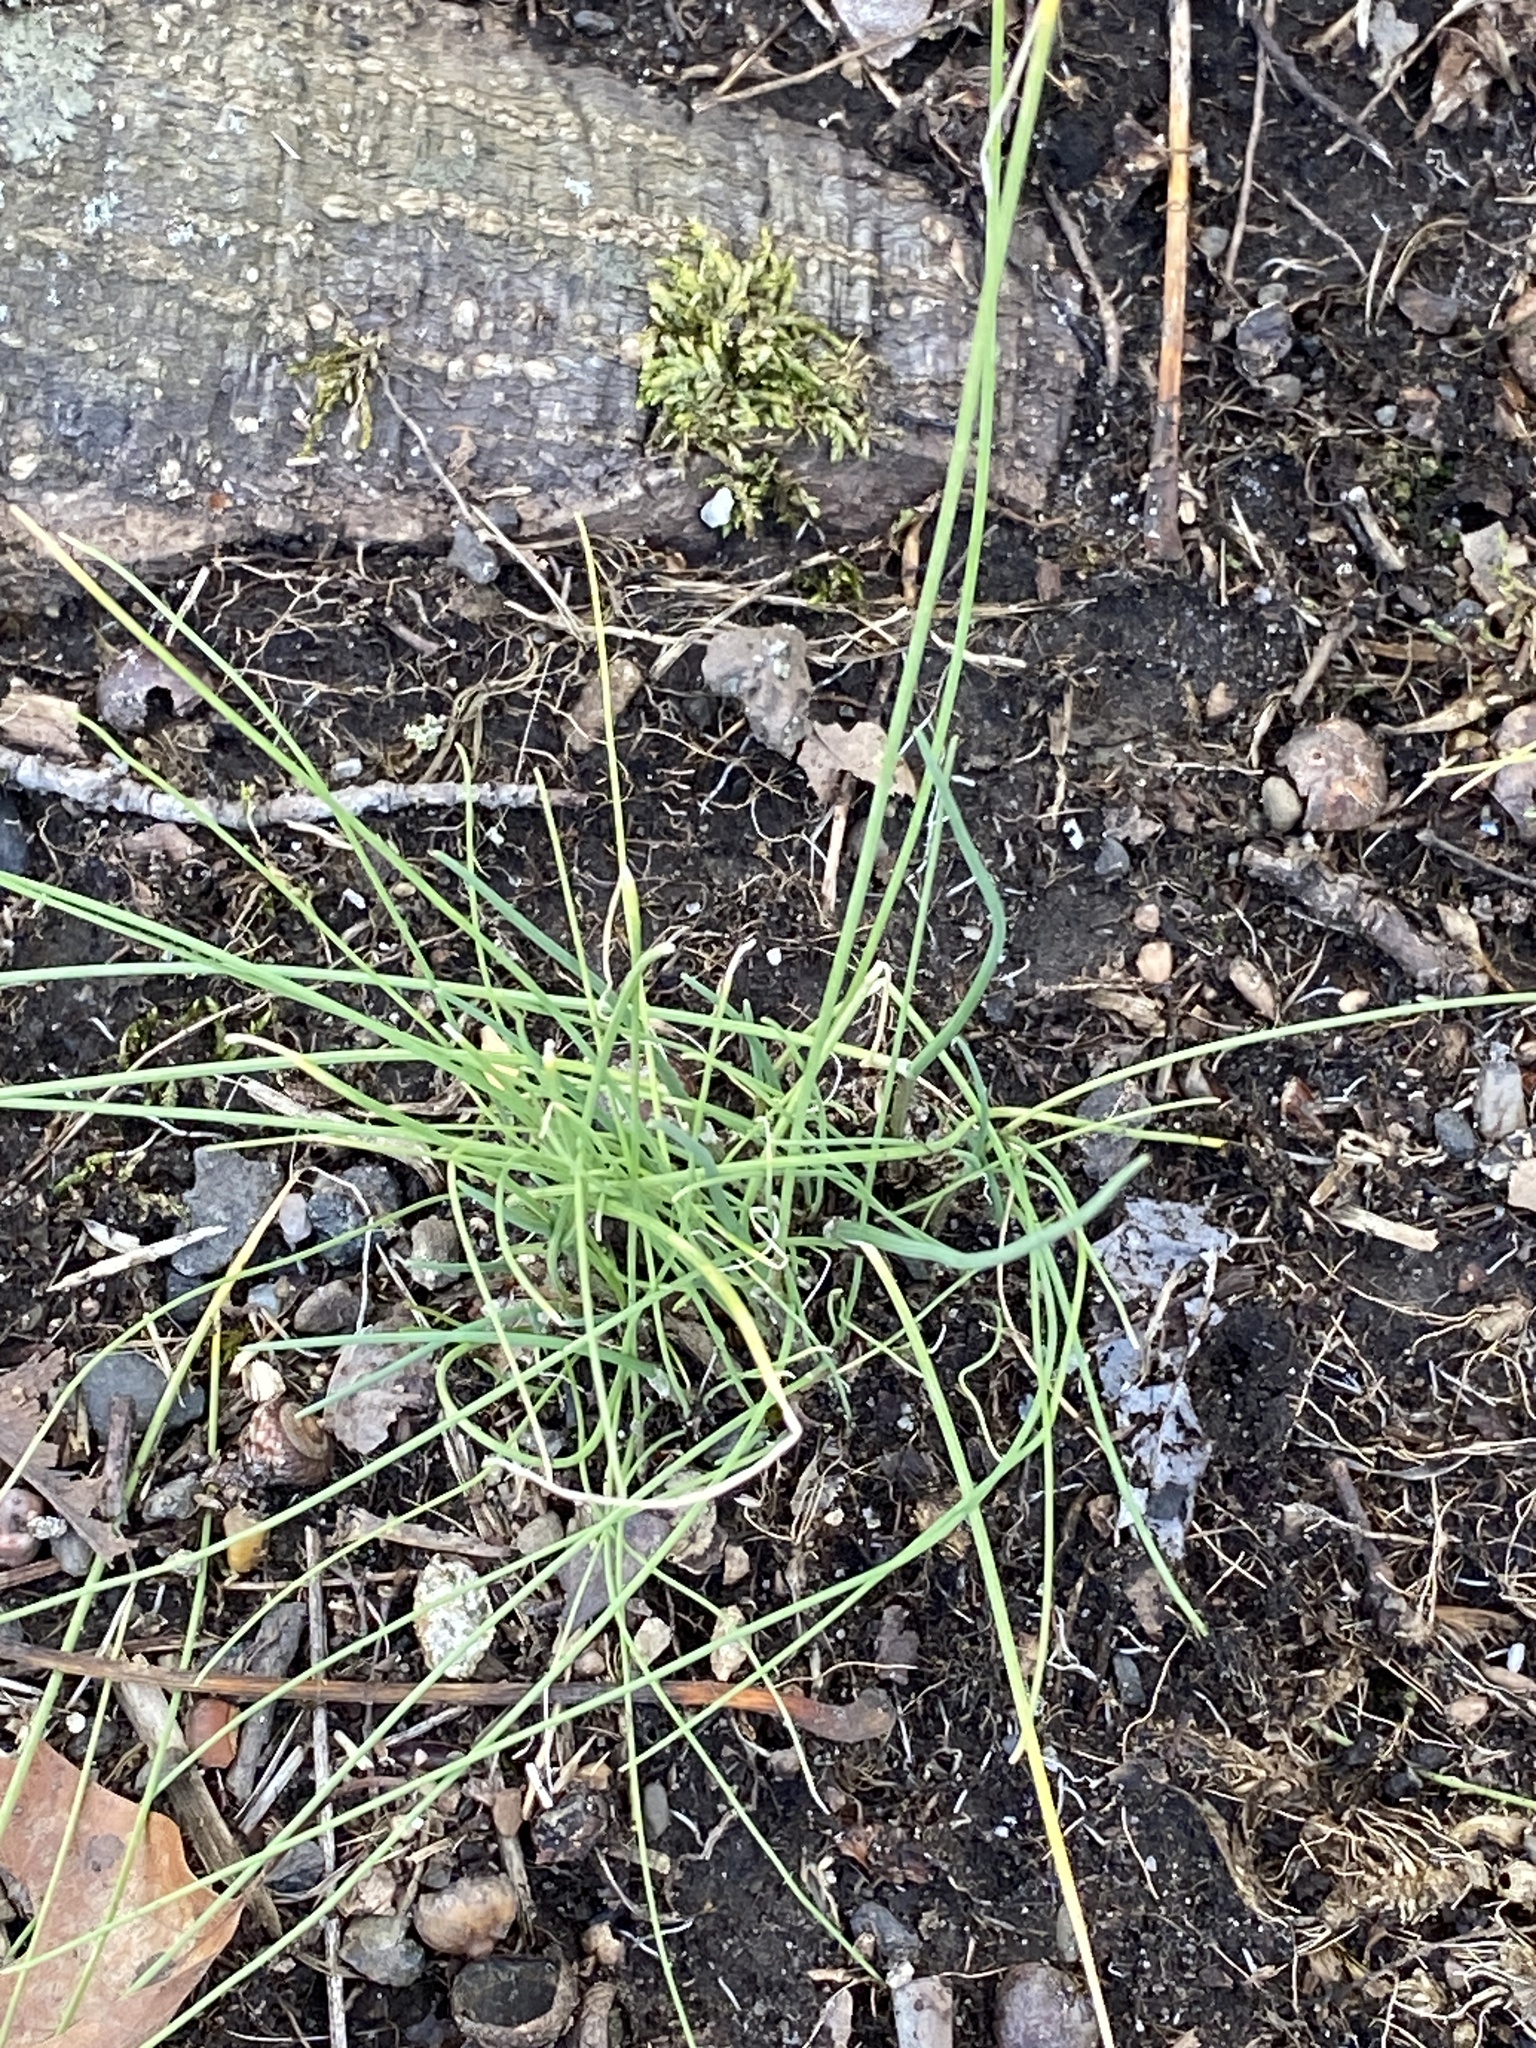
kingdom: Plantae
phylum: Tracheophyta
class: Liliopsida
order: Asparagales
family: Amaryllidaceae
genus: Allium
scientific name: Allium vineale
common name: Crow garlic
